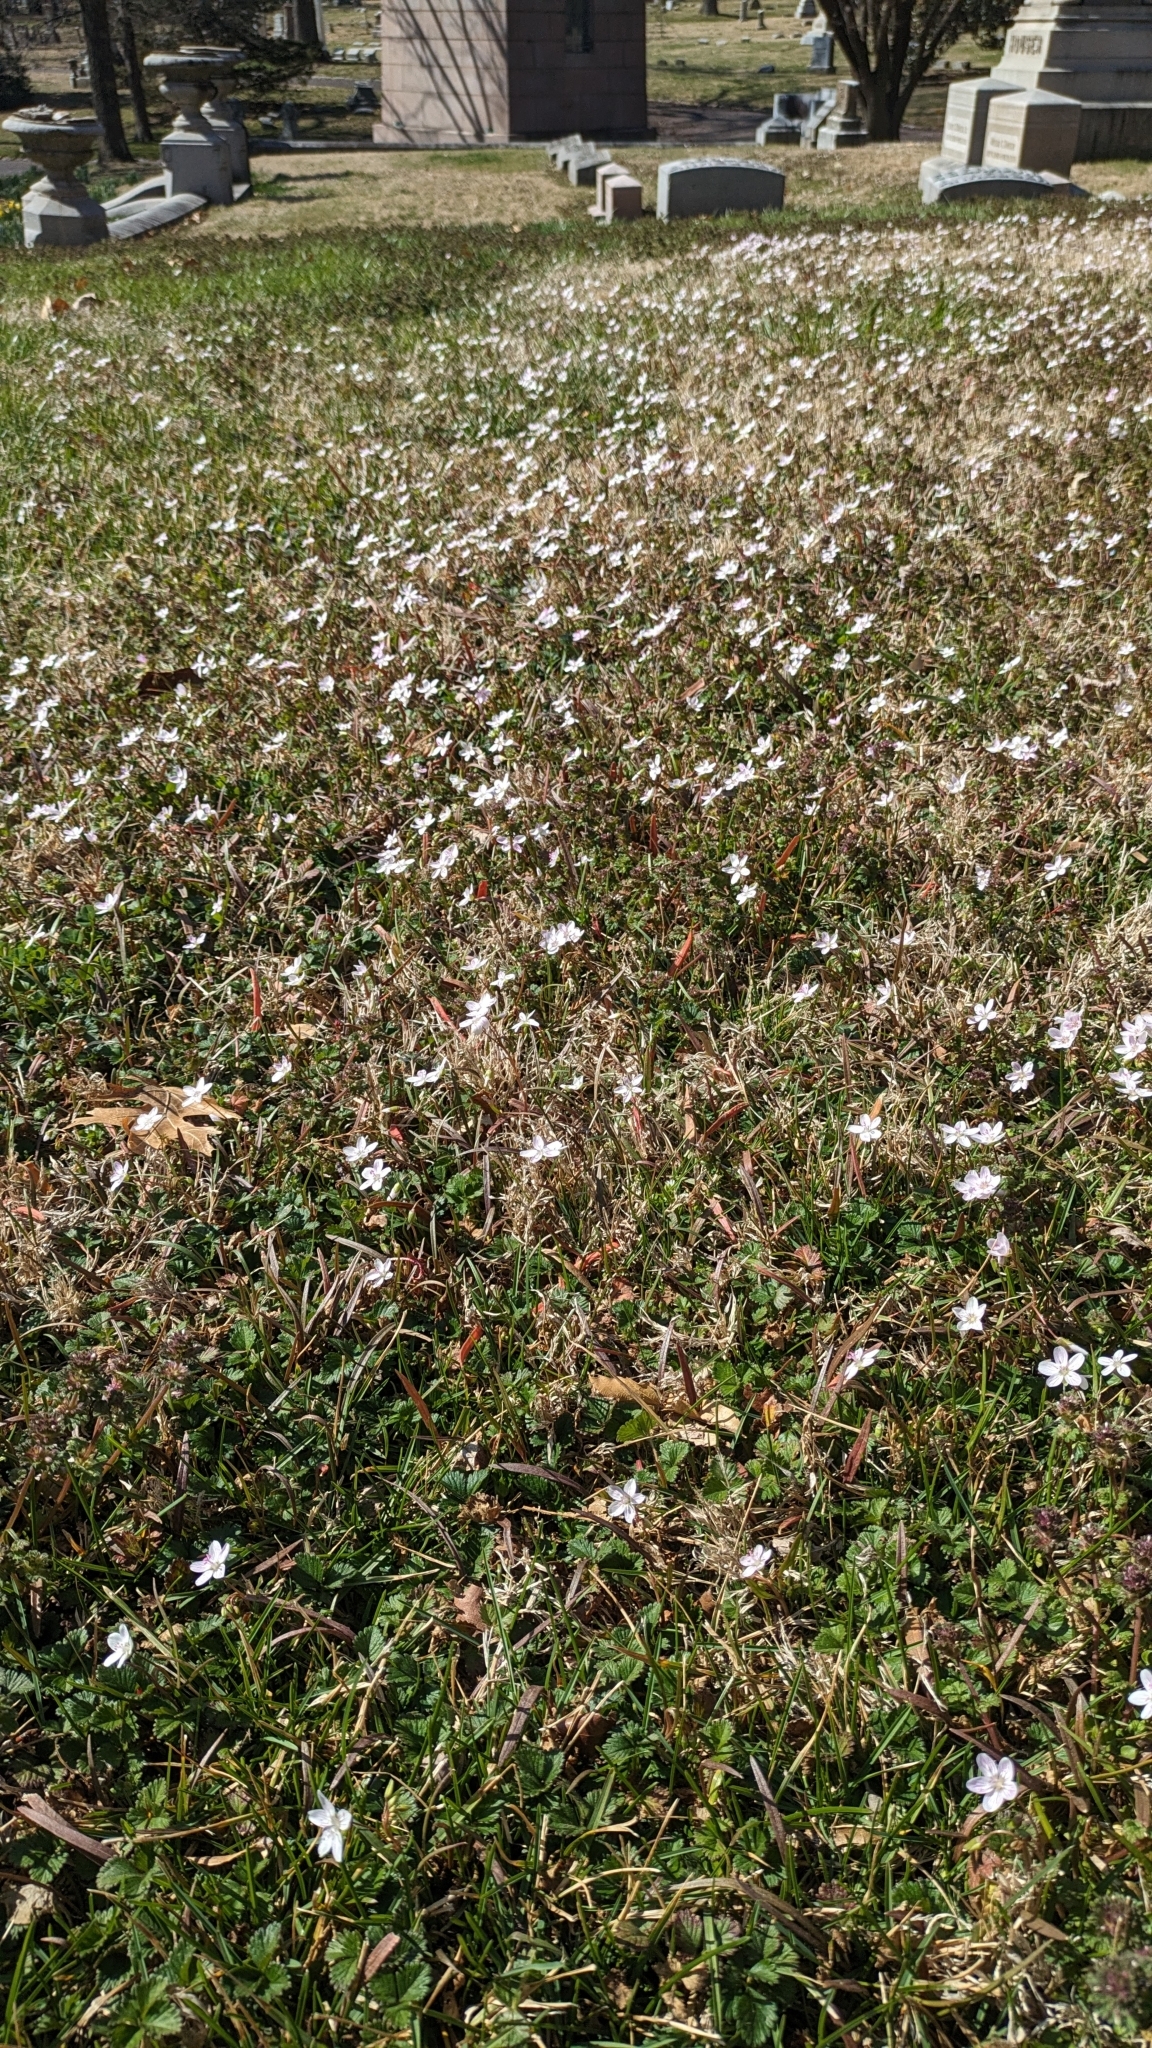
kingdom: Plantae
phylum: Tracheophyta
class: Magnoliopsida
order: Caryophyllales
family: Montiaceae
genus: Claytonia
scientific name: Claytonia virginica
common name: Virginia springbeauty
